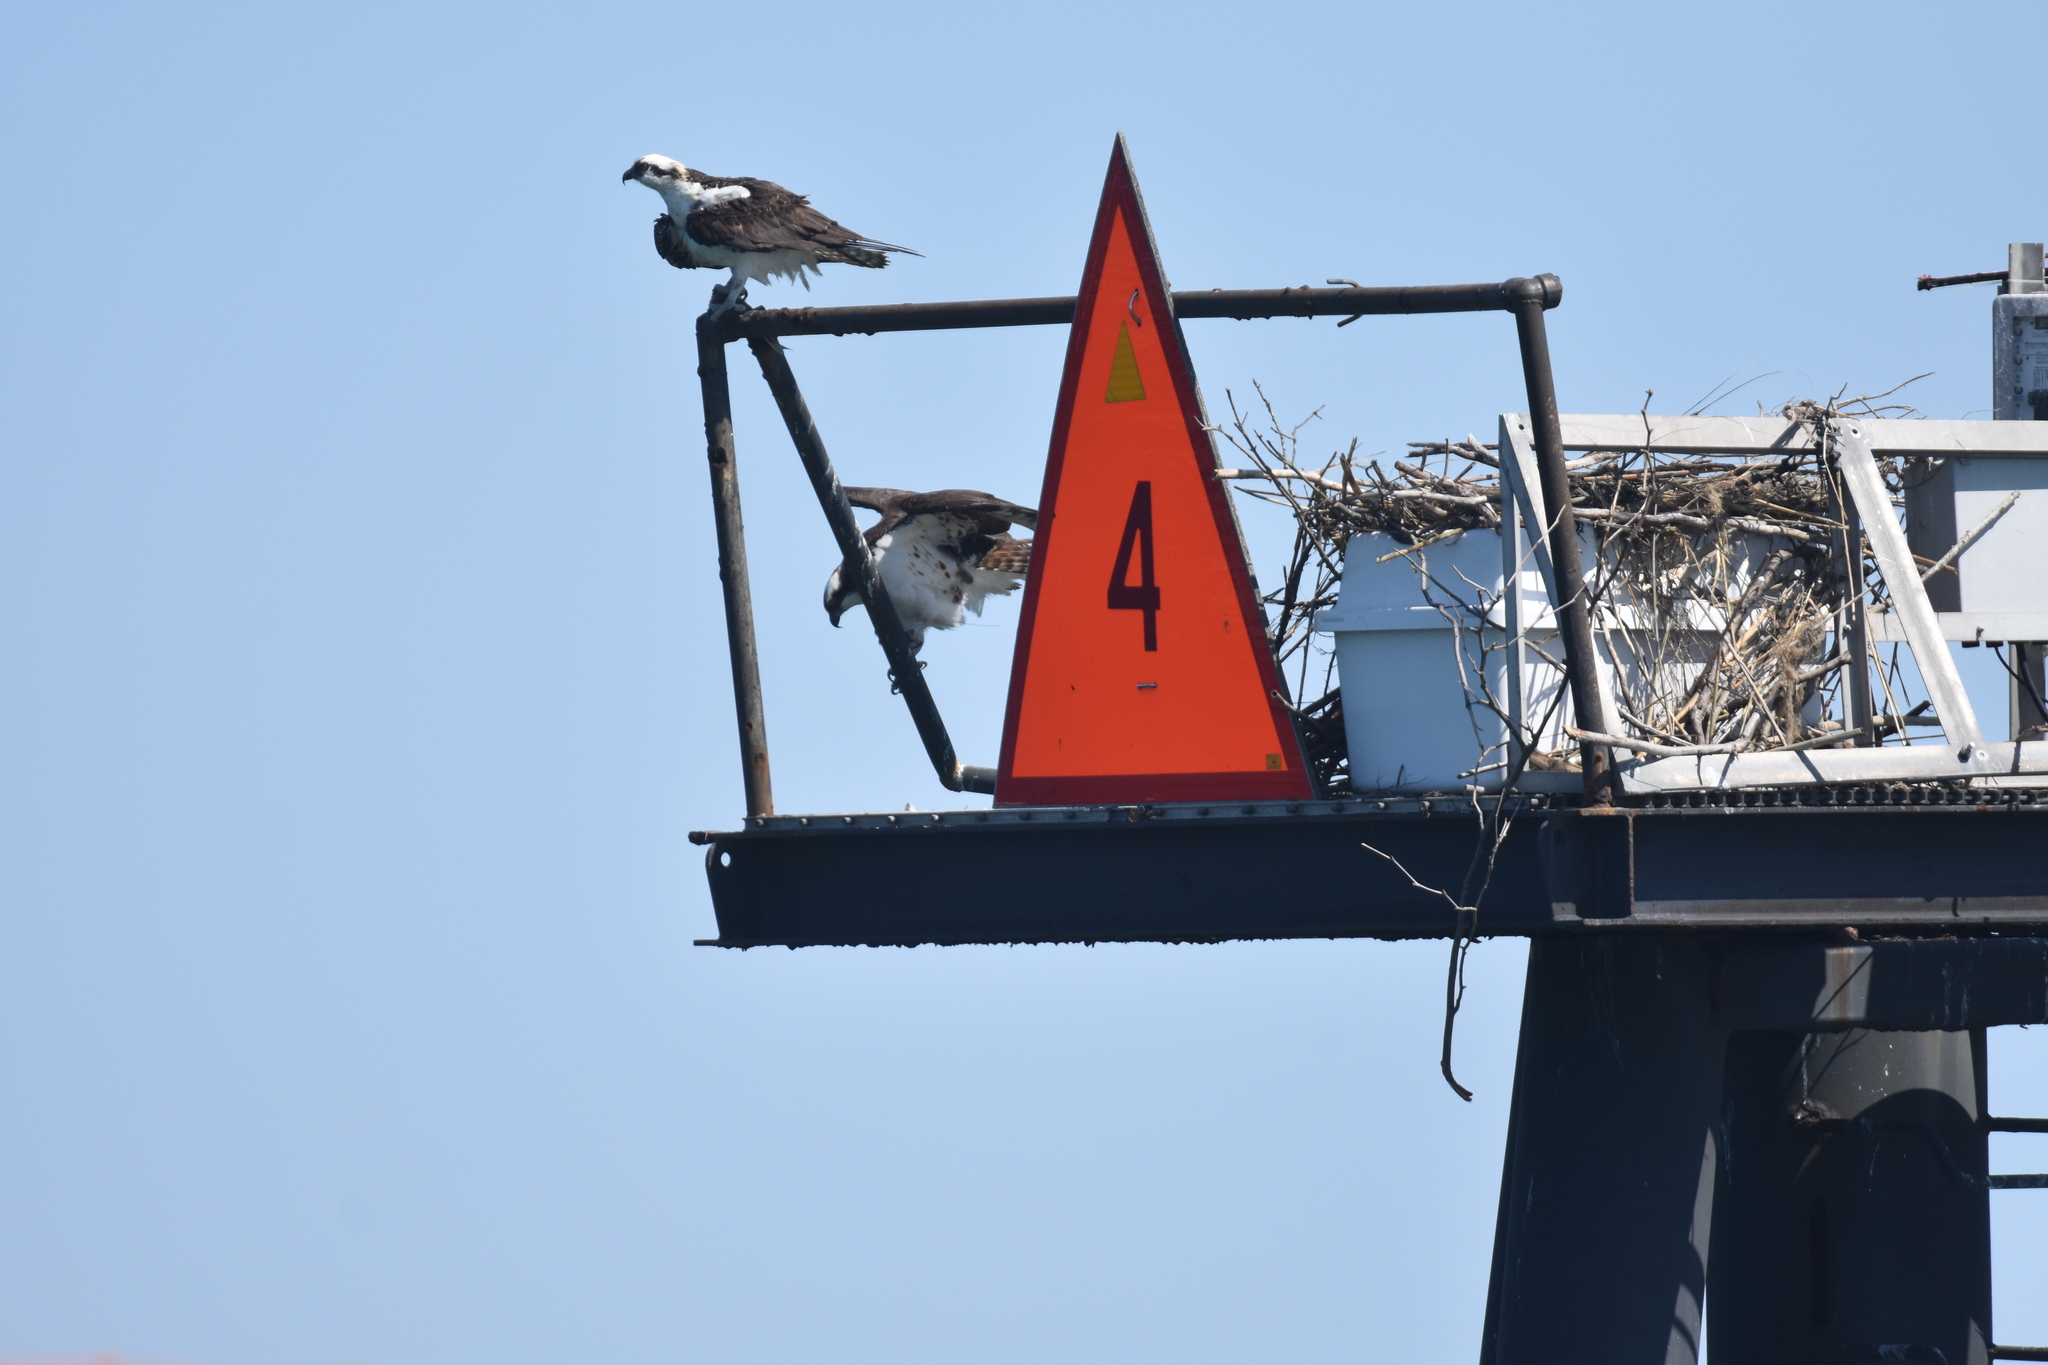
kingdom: Animalia
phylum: Chordata
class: Aves
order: Accipitriformes
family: Pandionidae
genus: Pandion
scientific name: Pandion haliaetus
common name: Osprey
